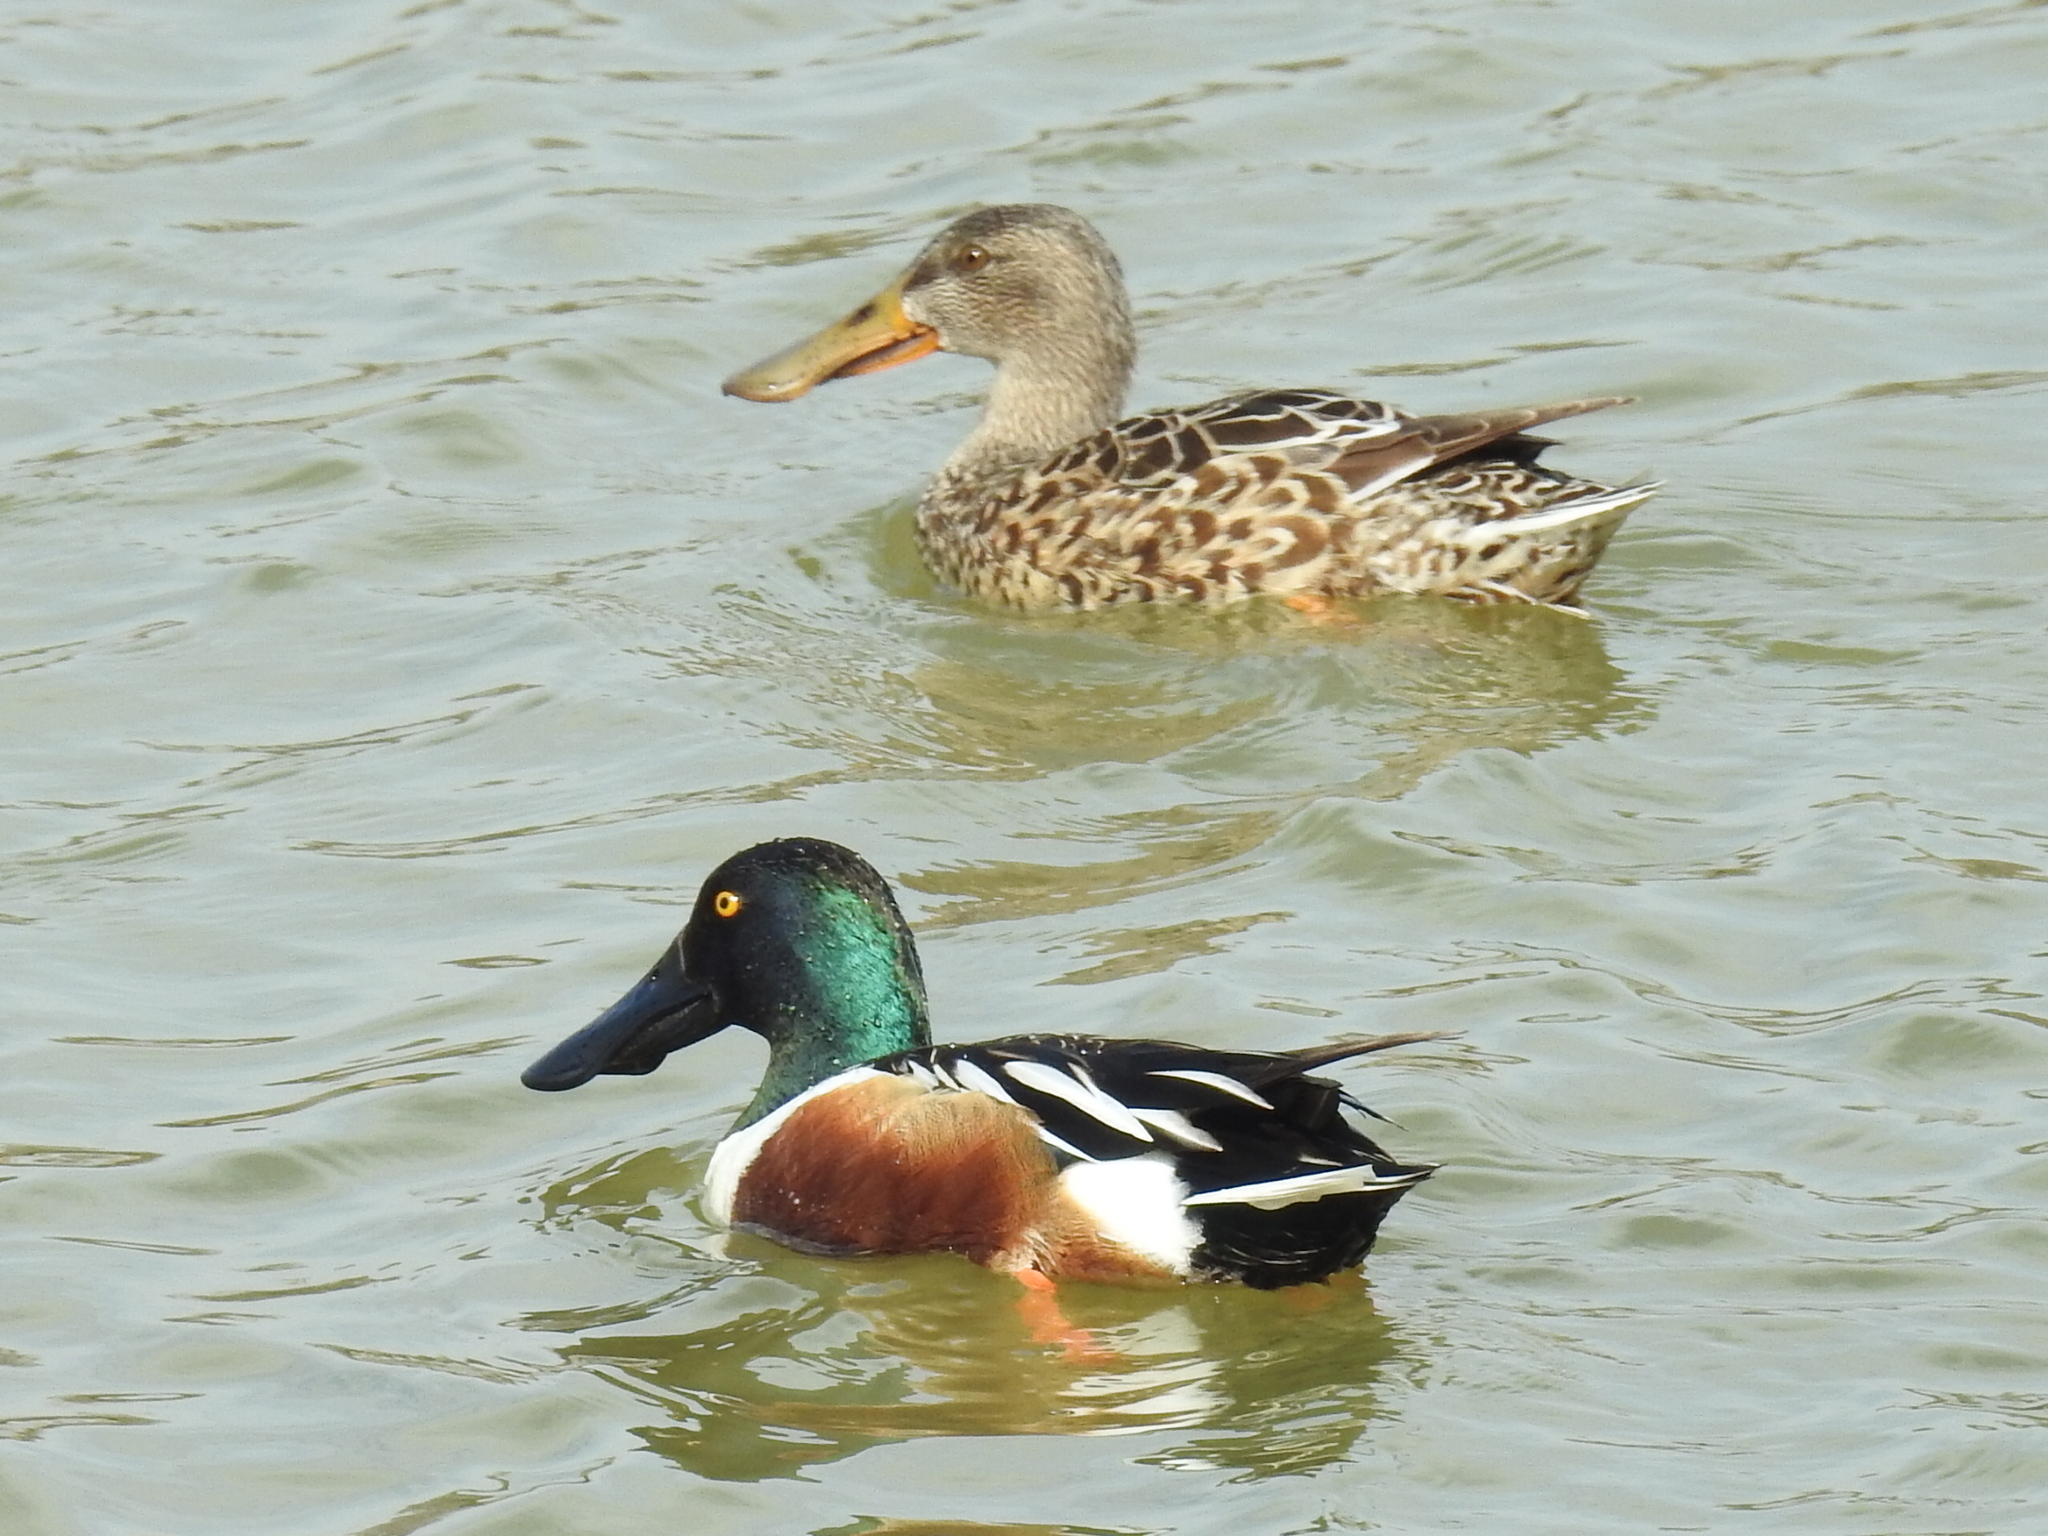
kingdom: Animalia
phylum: Chordata
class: Aves
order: Anseriformes
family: Anatidae
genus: Spatula
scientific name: Spatula clypeata
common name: Northern shoveler
